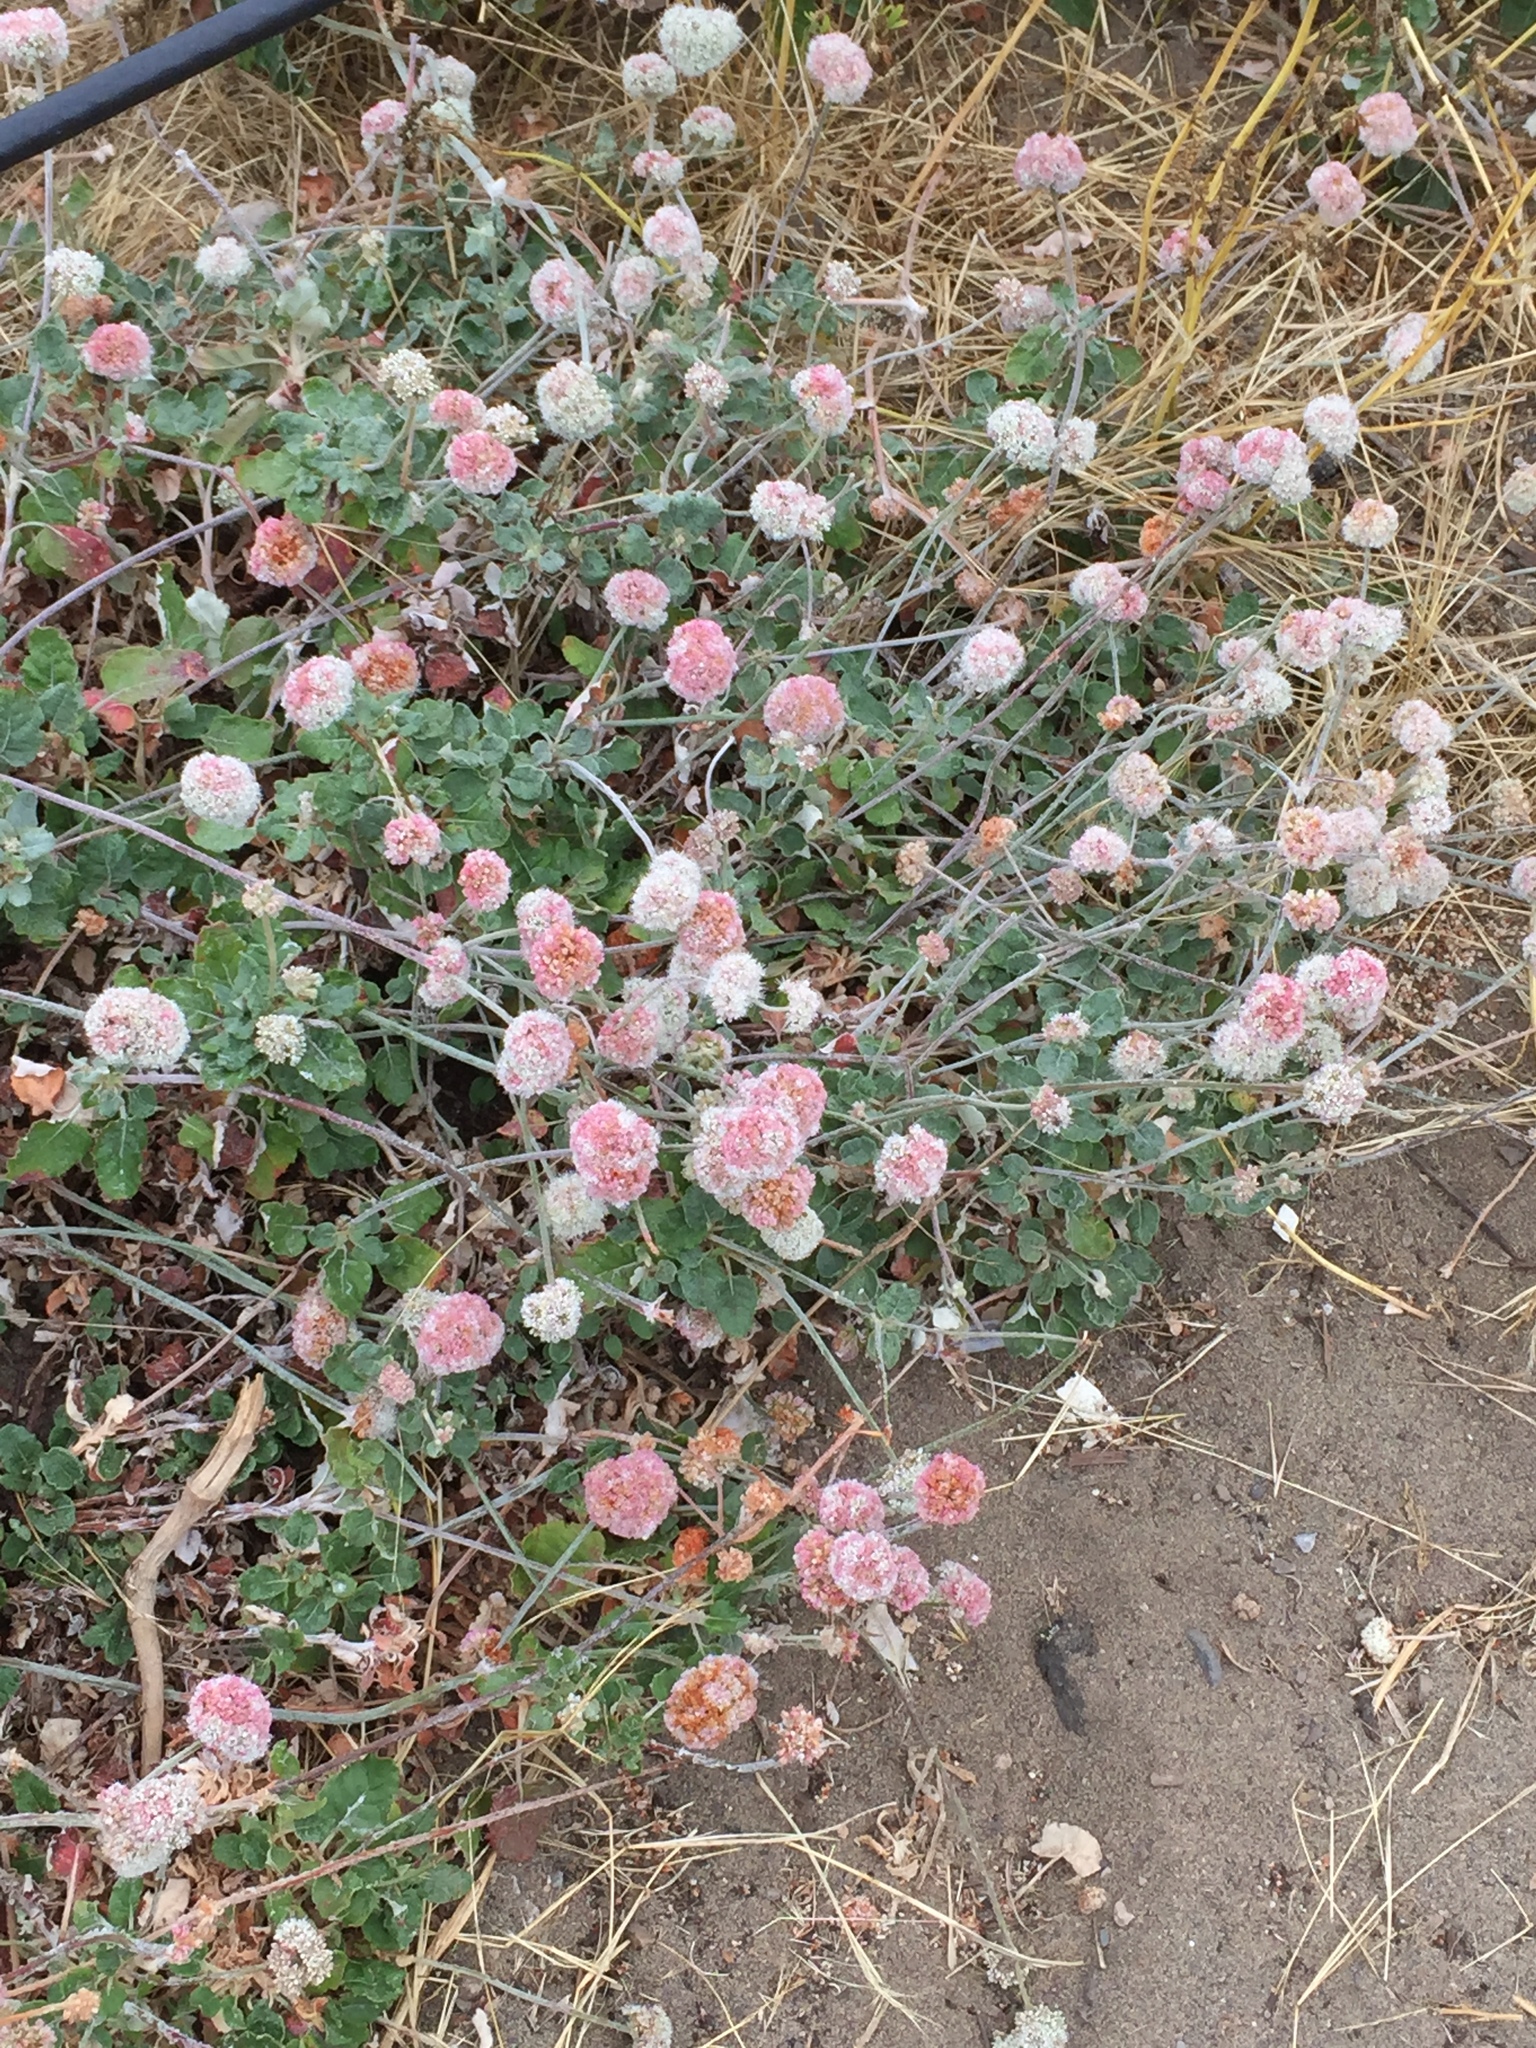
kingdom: Plantae
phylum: Tracheophyta
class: Magnoliopsida
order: Caryophyllales
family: Polygonaceae
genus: Eriogonum
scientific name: Eriogonum latifolium
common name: Seaside wild buckwheat
